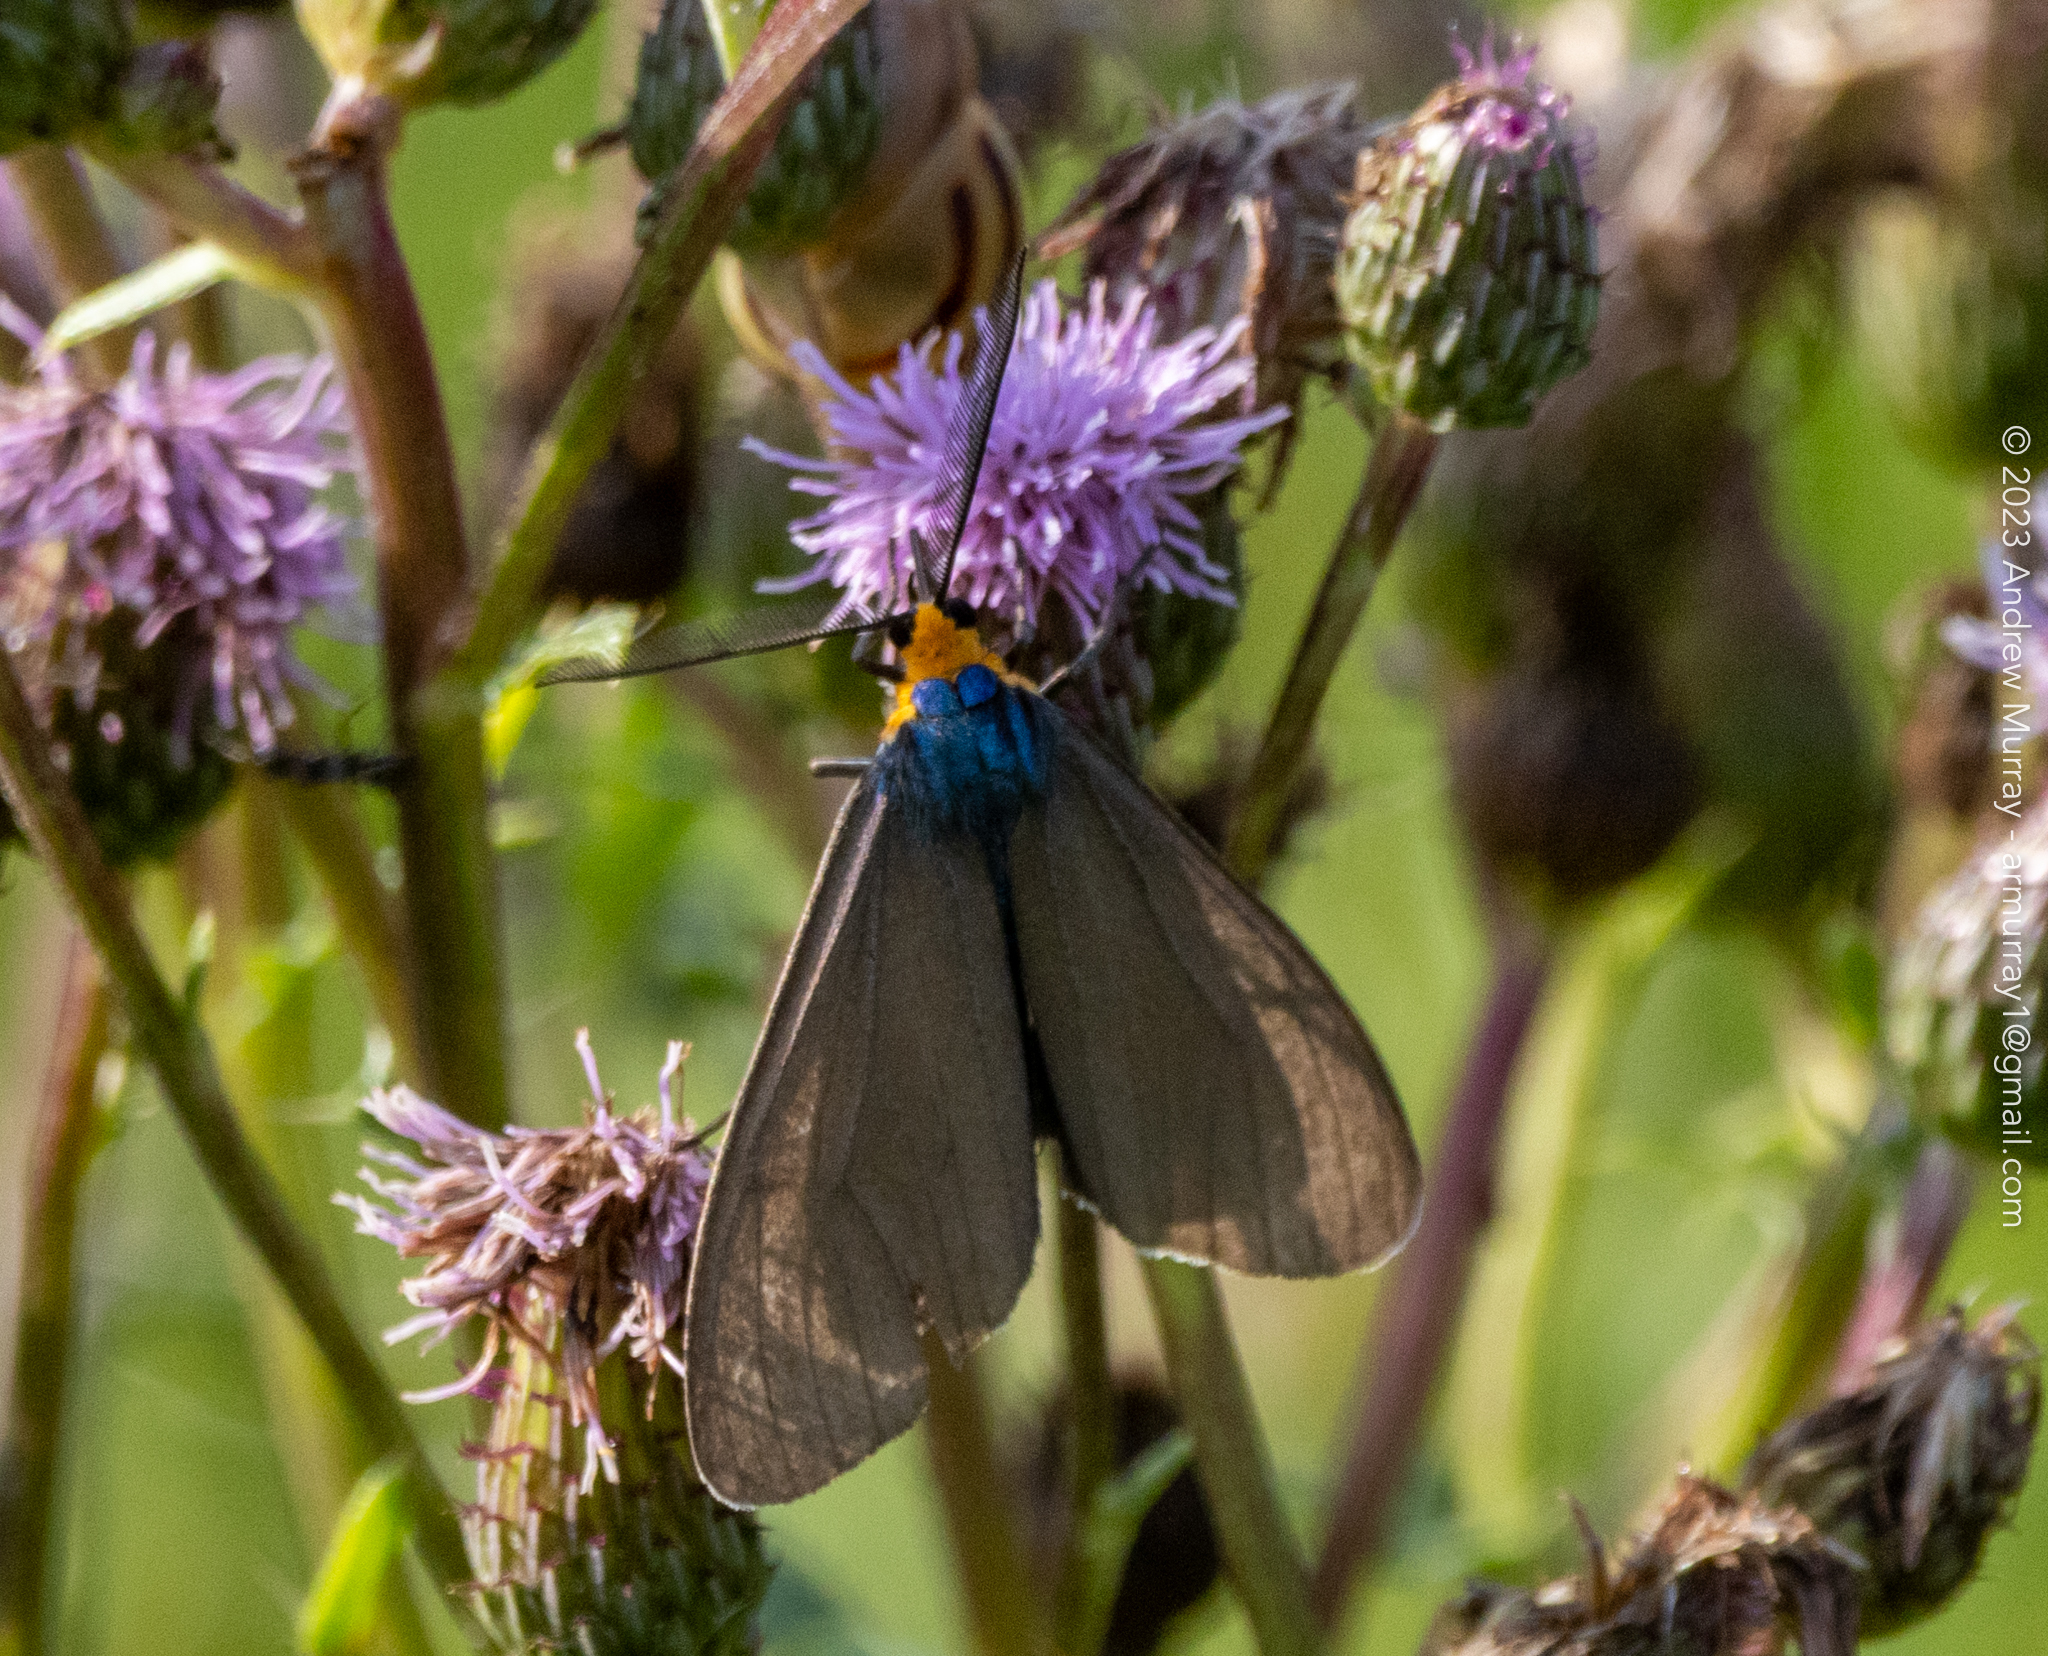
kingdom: Animalia
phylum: Arthropoda
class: Insecta
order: Lepidoptera
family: Erebidae
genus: Ctenucha
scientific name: Ctenucha virginica
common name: Virginia ctenucha moth
